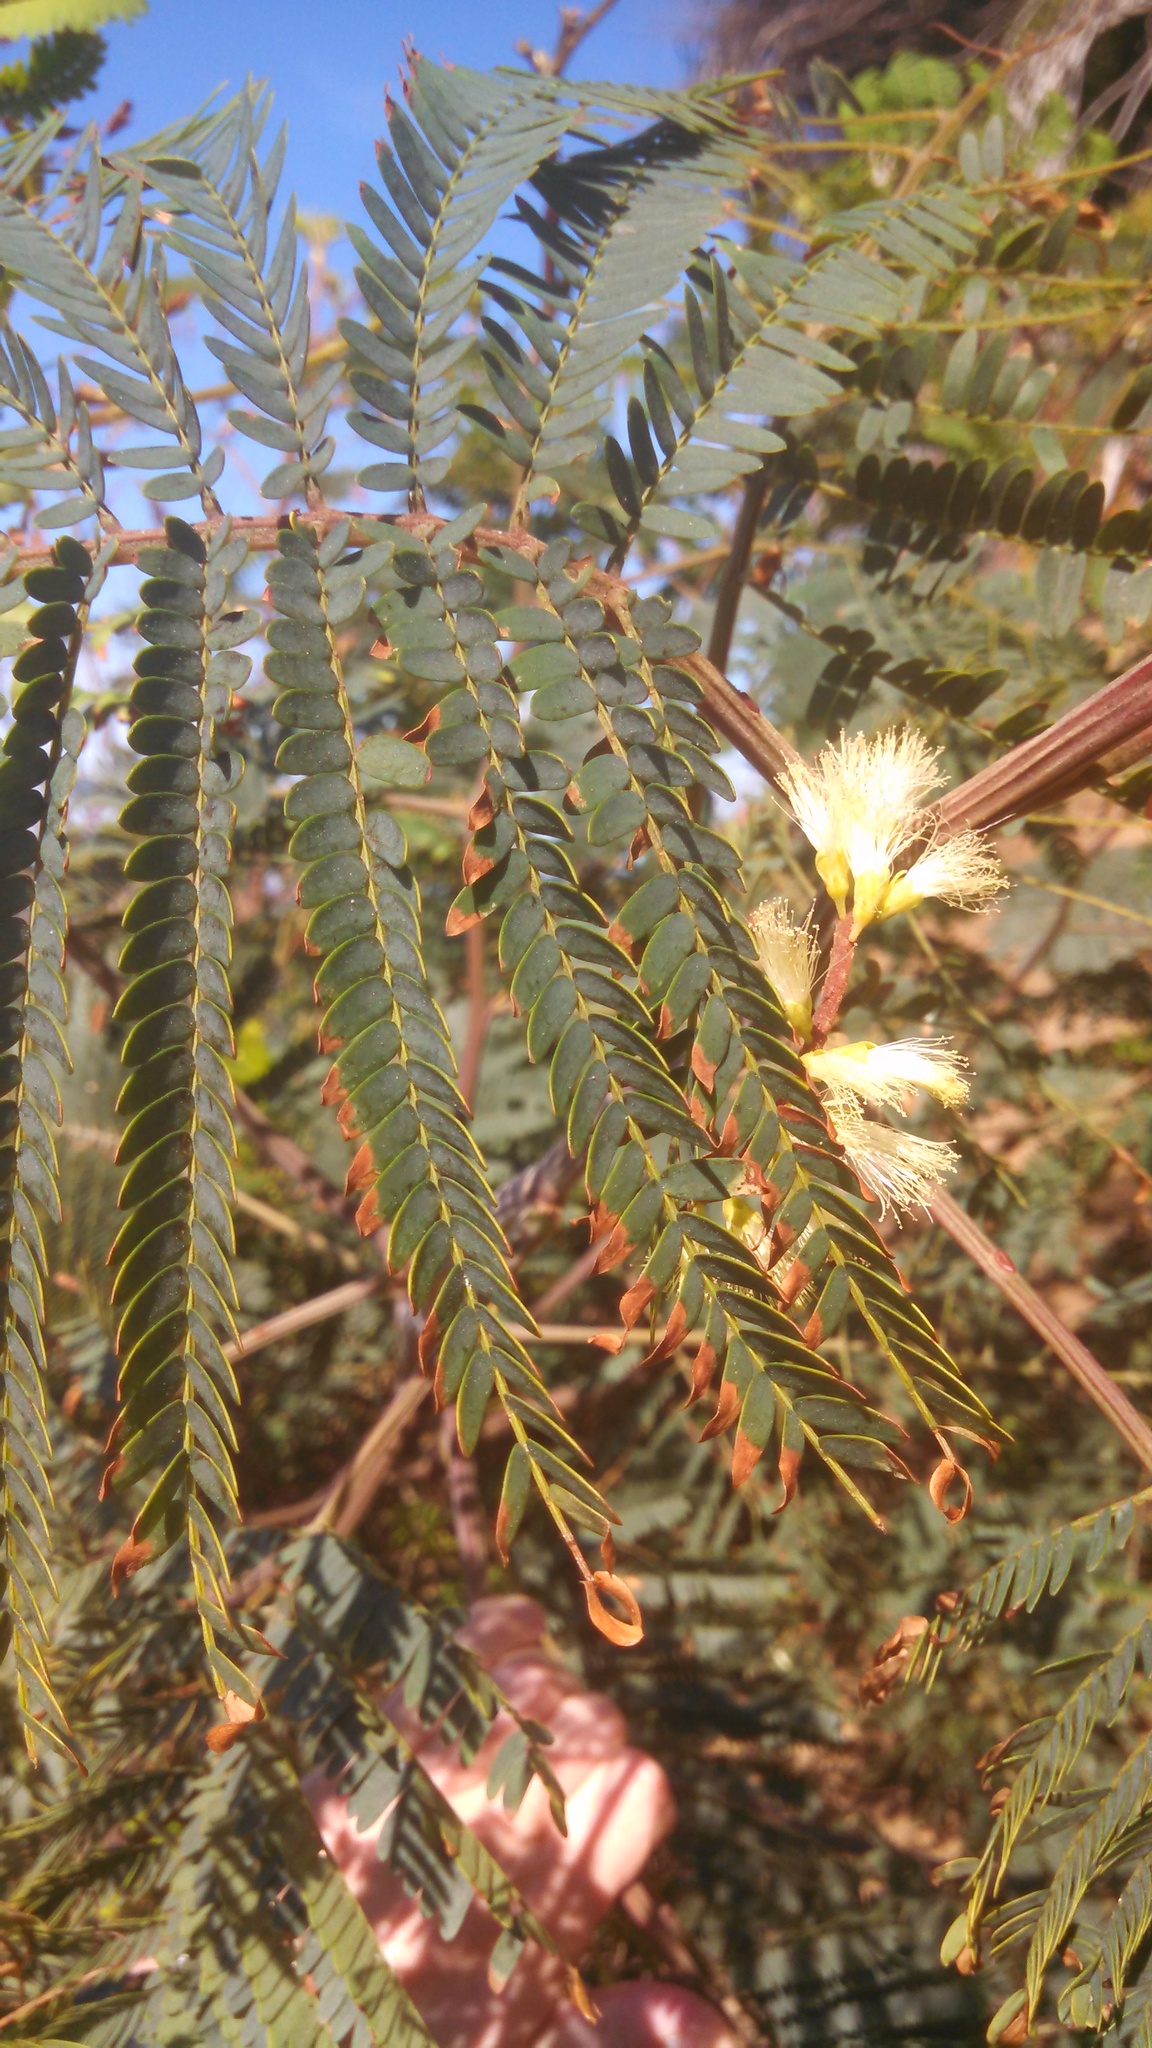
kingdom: Plantae
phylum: Tracheophyta
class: Magnoliopsida
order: Fabales
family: Fabaceae
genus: Paraserianthes
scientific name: Paraserianthes lophantha
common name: Plume albizia
